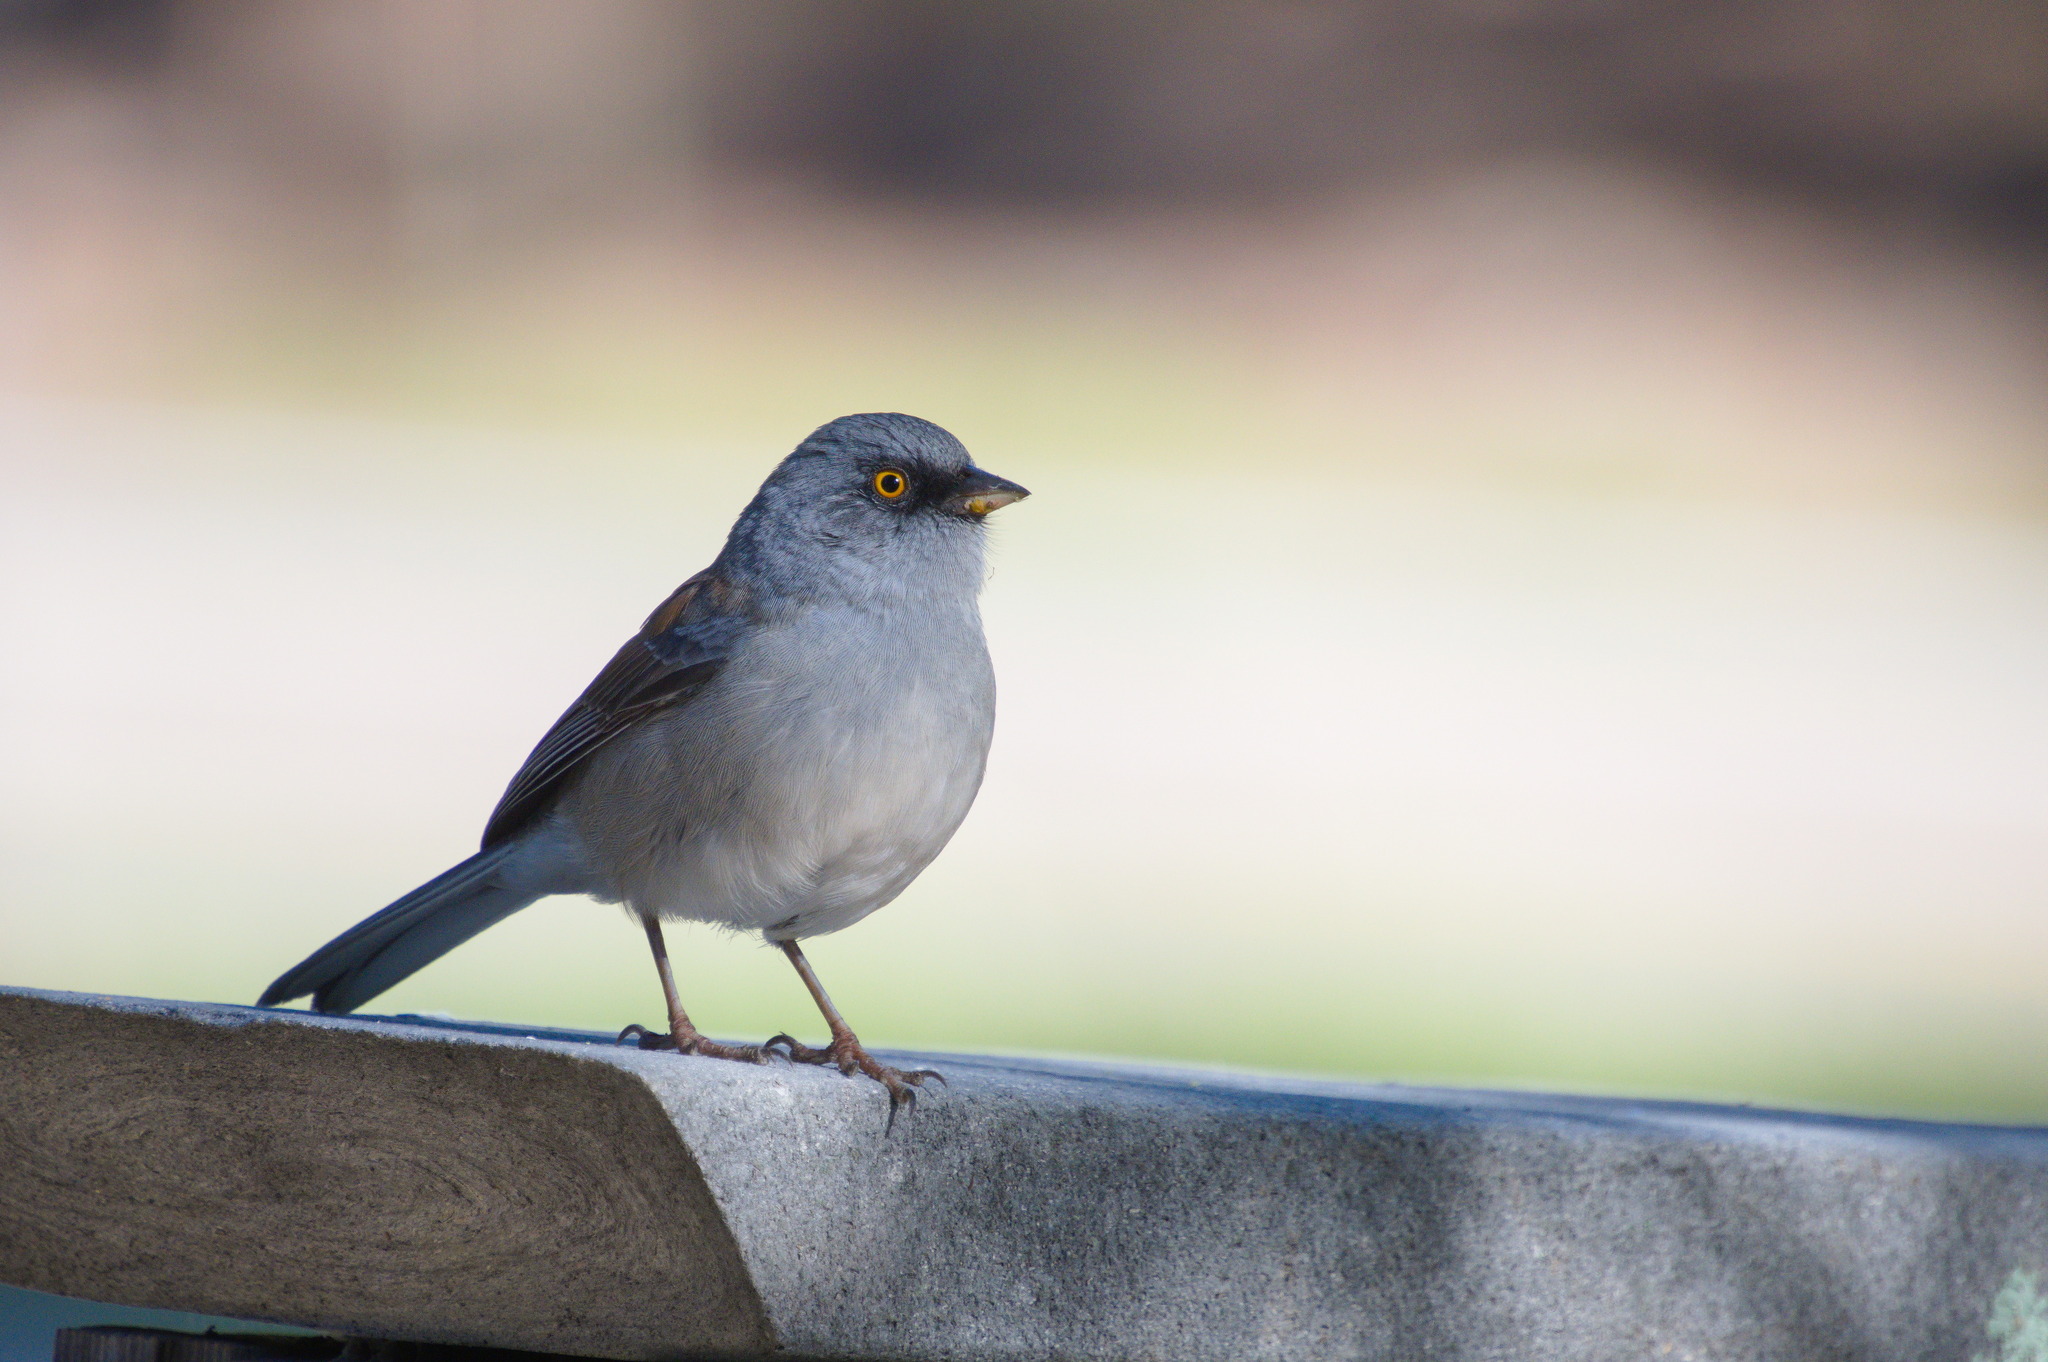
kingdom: Animalia
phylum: Chordata
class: Aves
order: Passeriformes
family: Passerellidae
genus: Junco
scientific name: Junco phaeonotus
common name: Yellow-eyed junco
